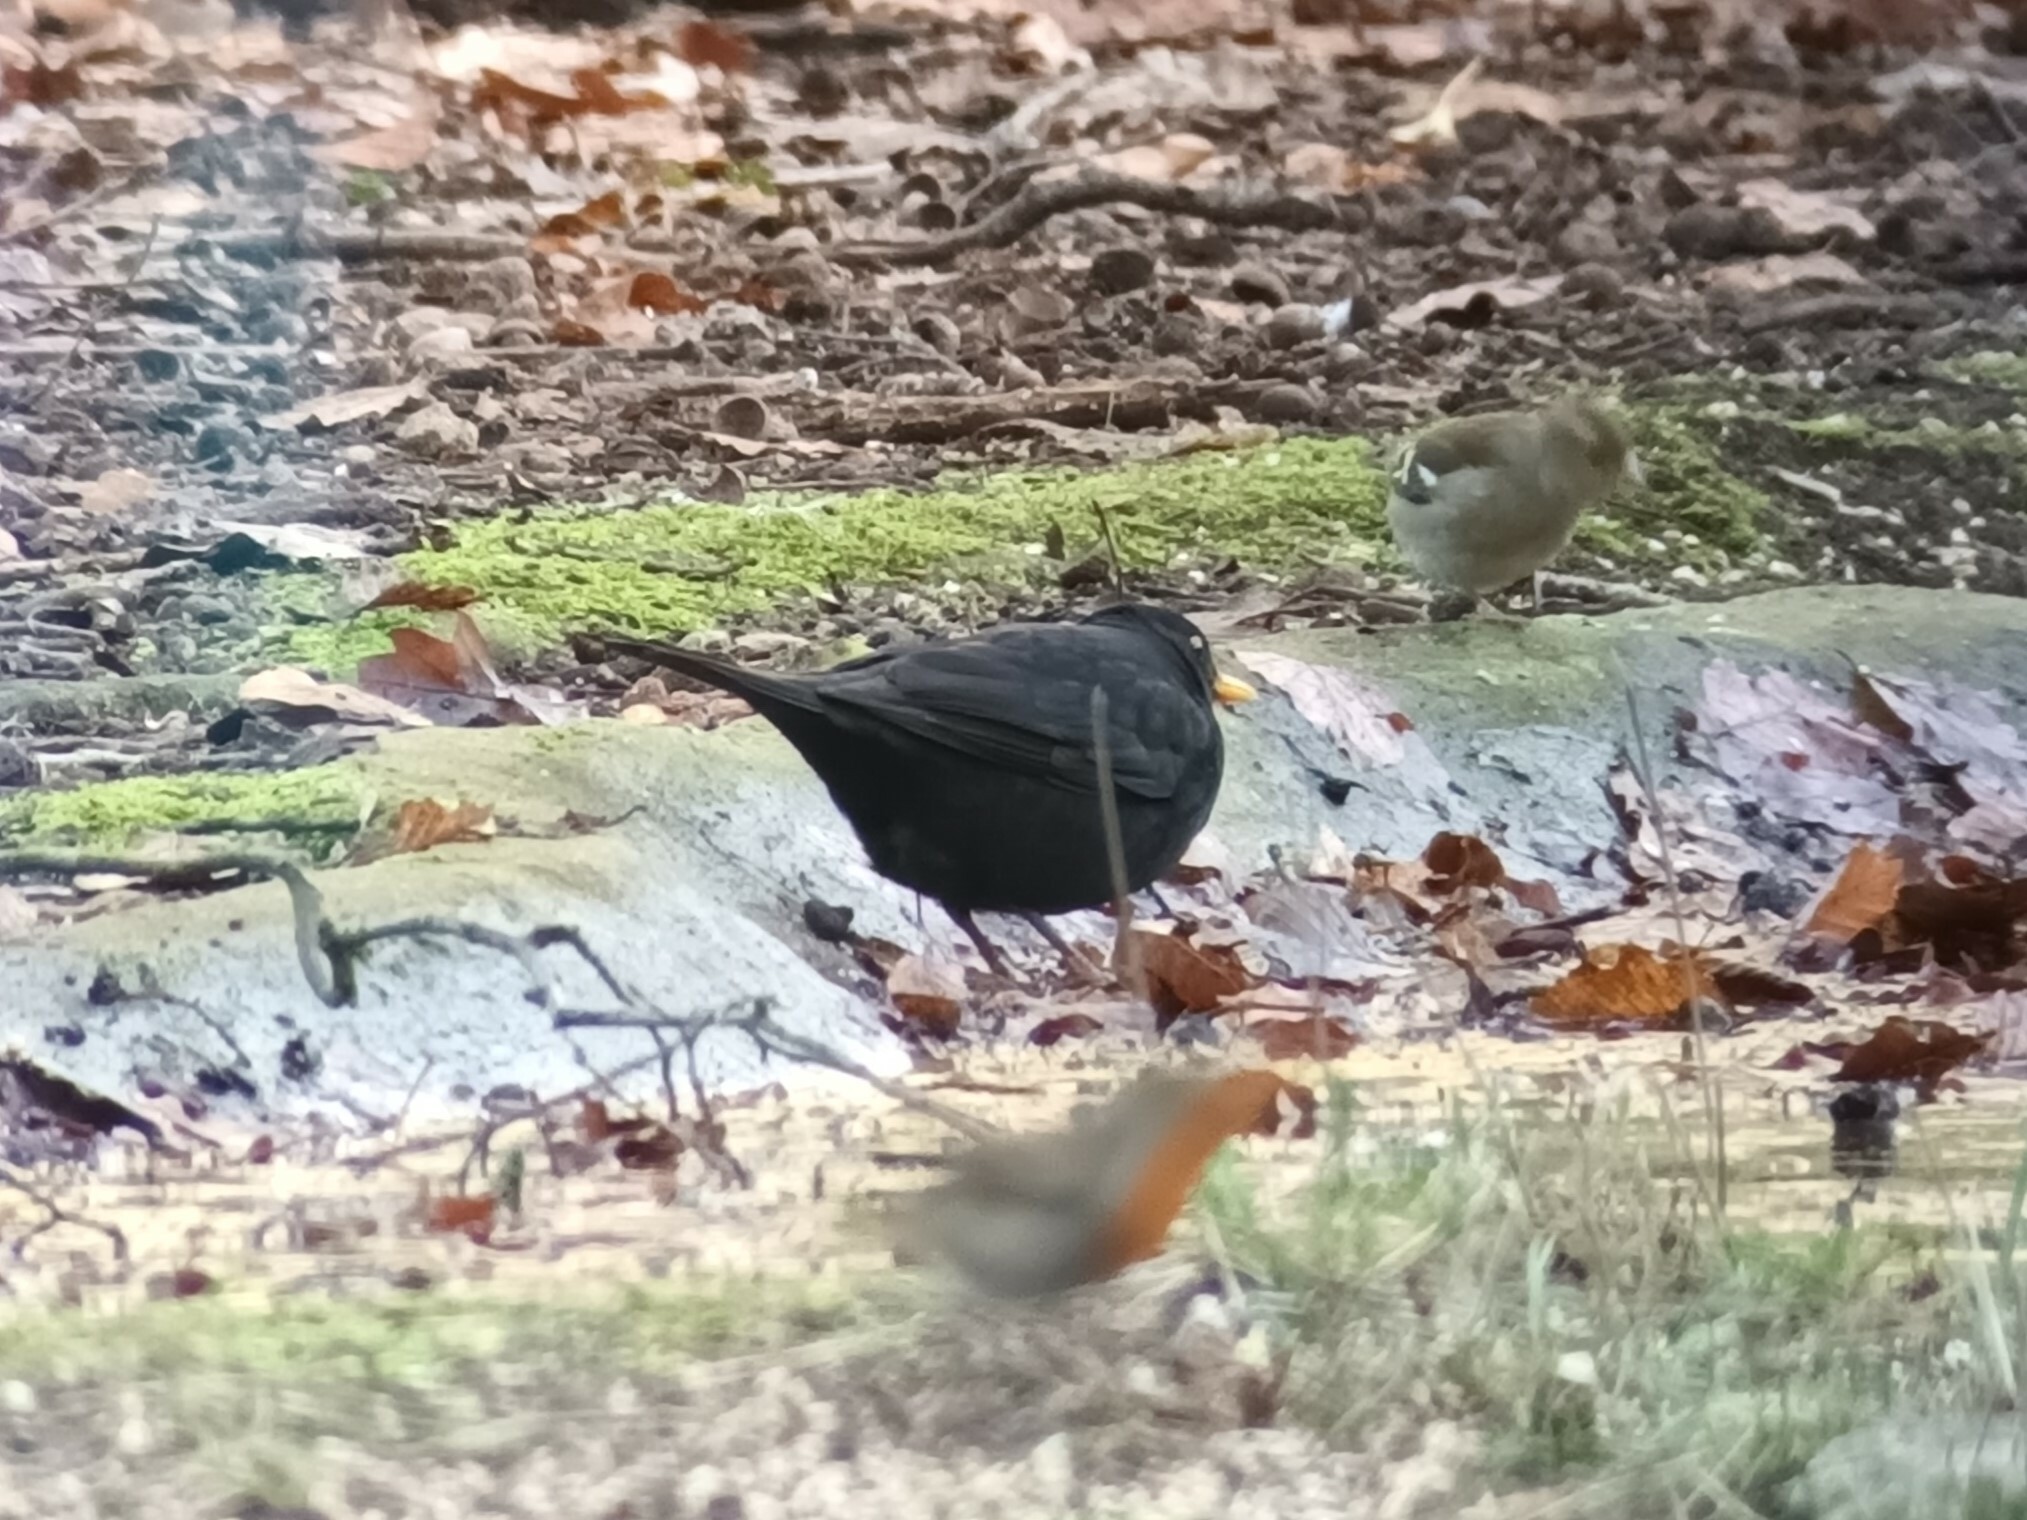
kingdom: Animalia
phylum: Chordata
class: Aves
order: Passeriformes
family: Turdidae
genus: Turdus
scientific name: Turdus merula
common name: Common blackbird
